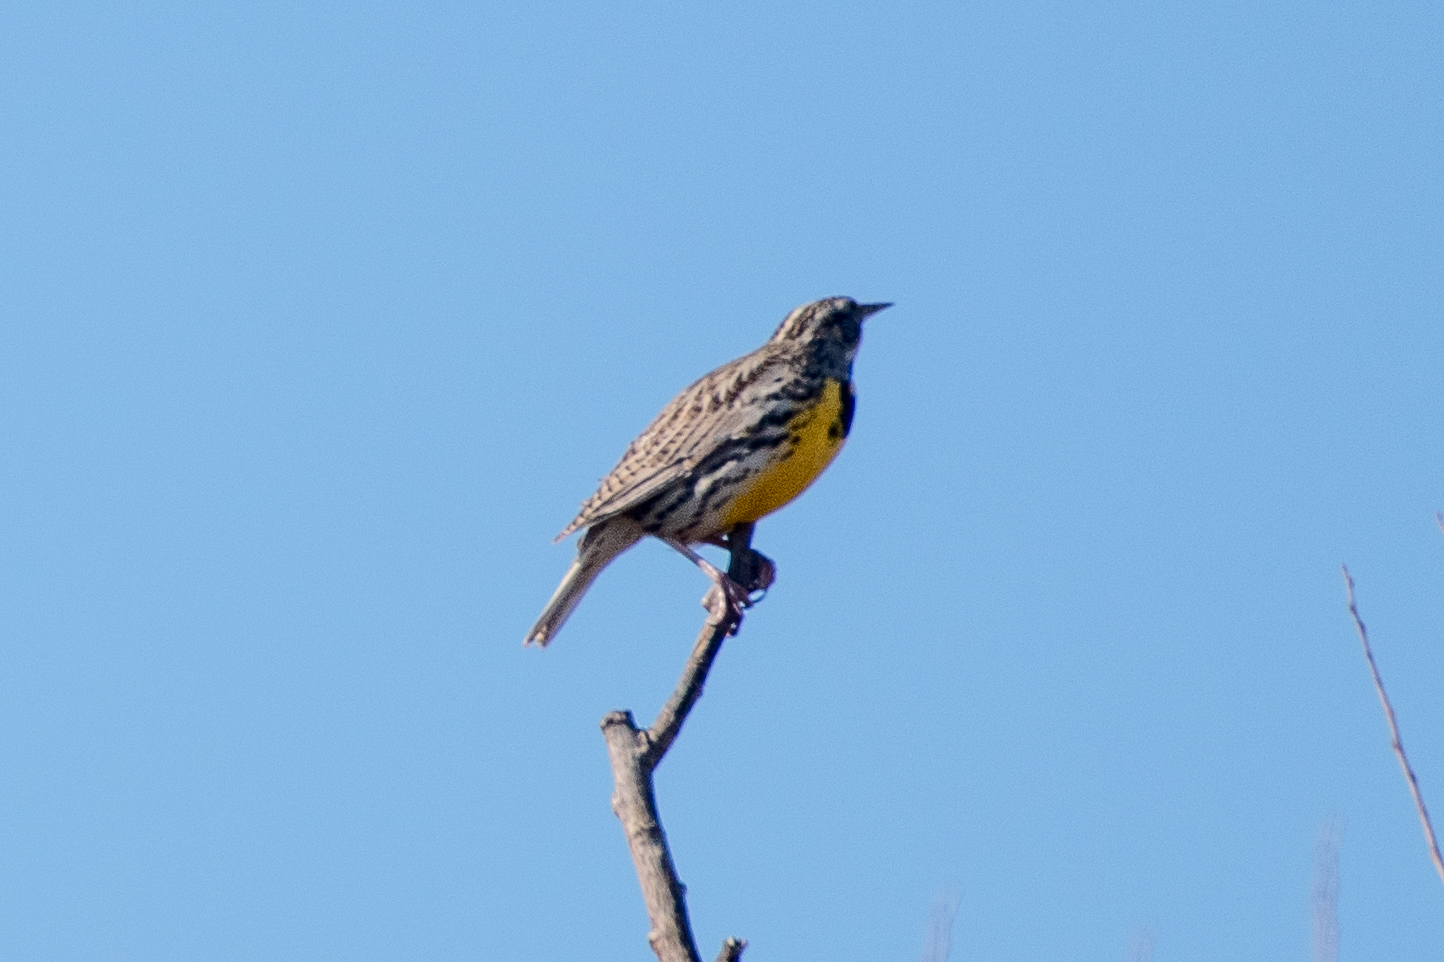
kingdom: Animalia
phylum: Chordata
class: Aves
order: Passeriformes
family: Icteridae
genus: Sturnella
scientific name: Sturnella neglecta
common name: Western meadowlark
